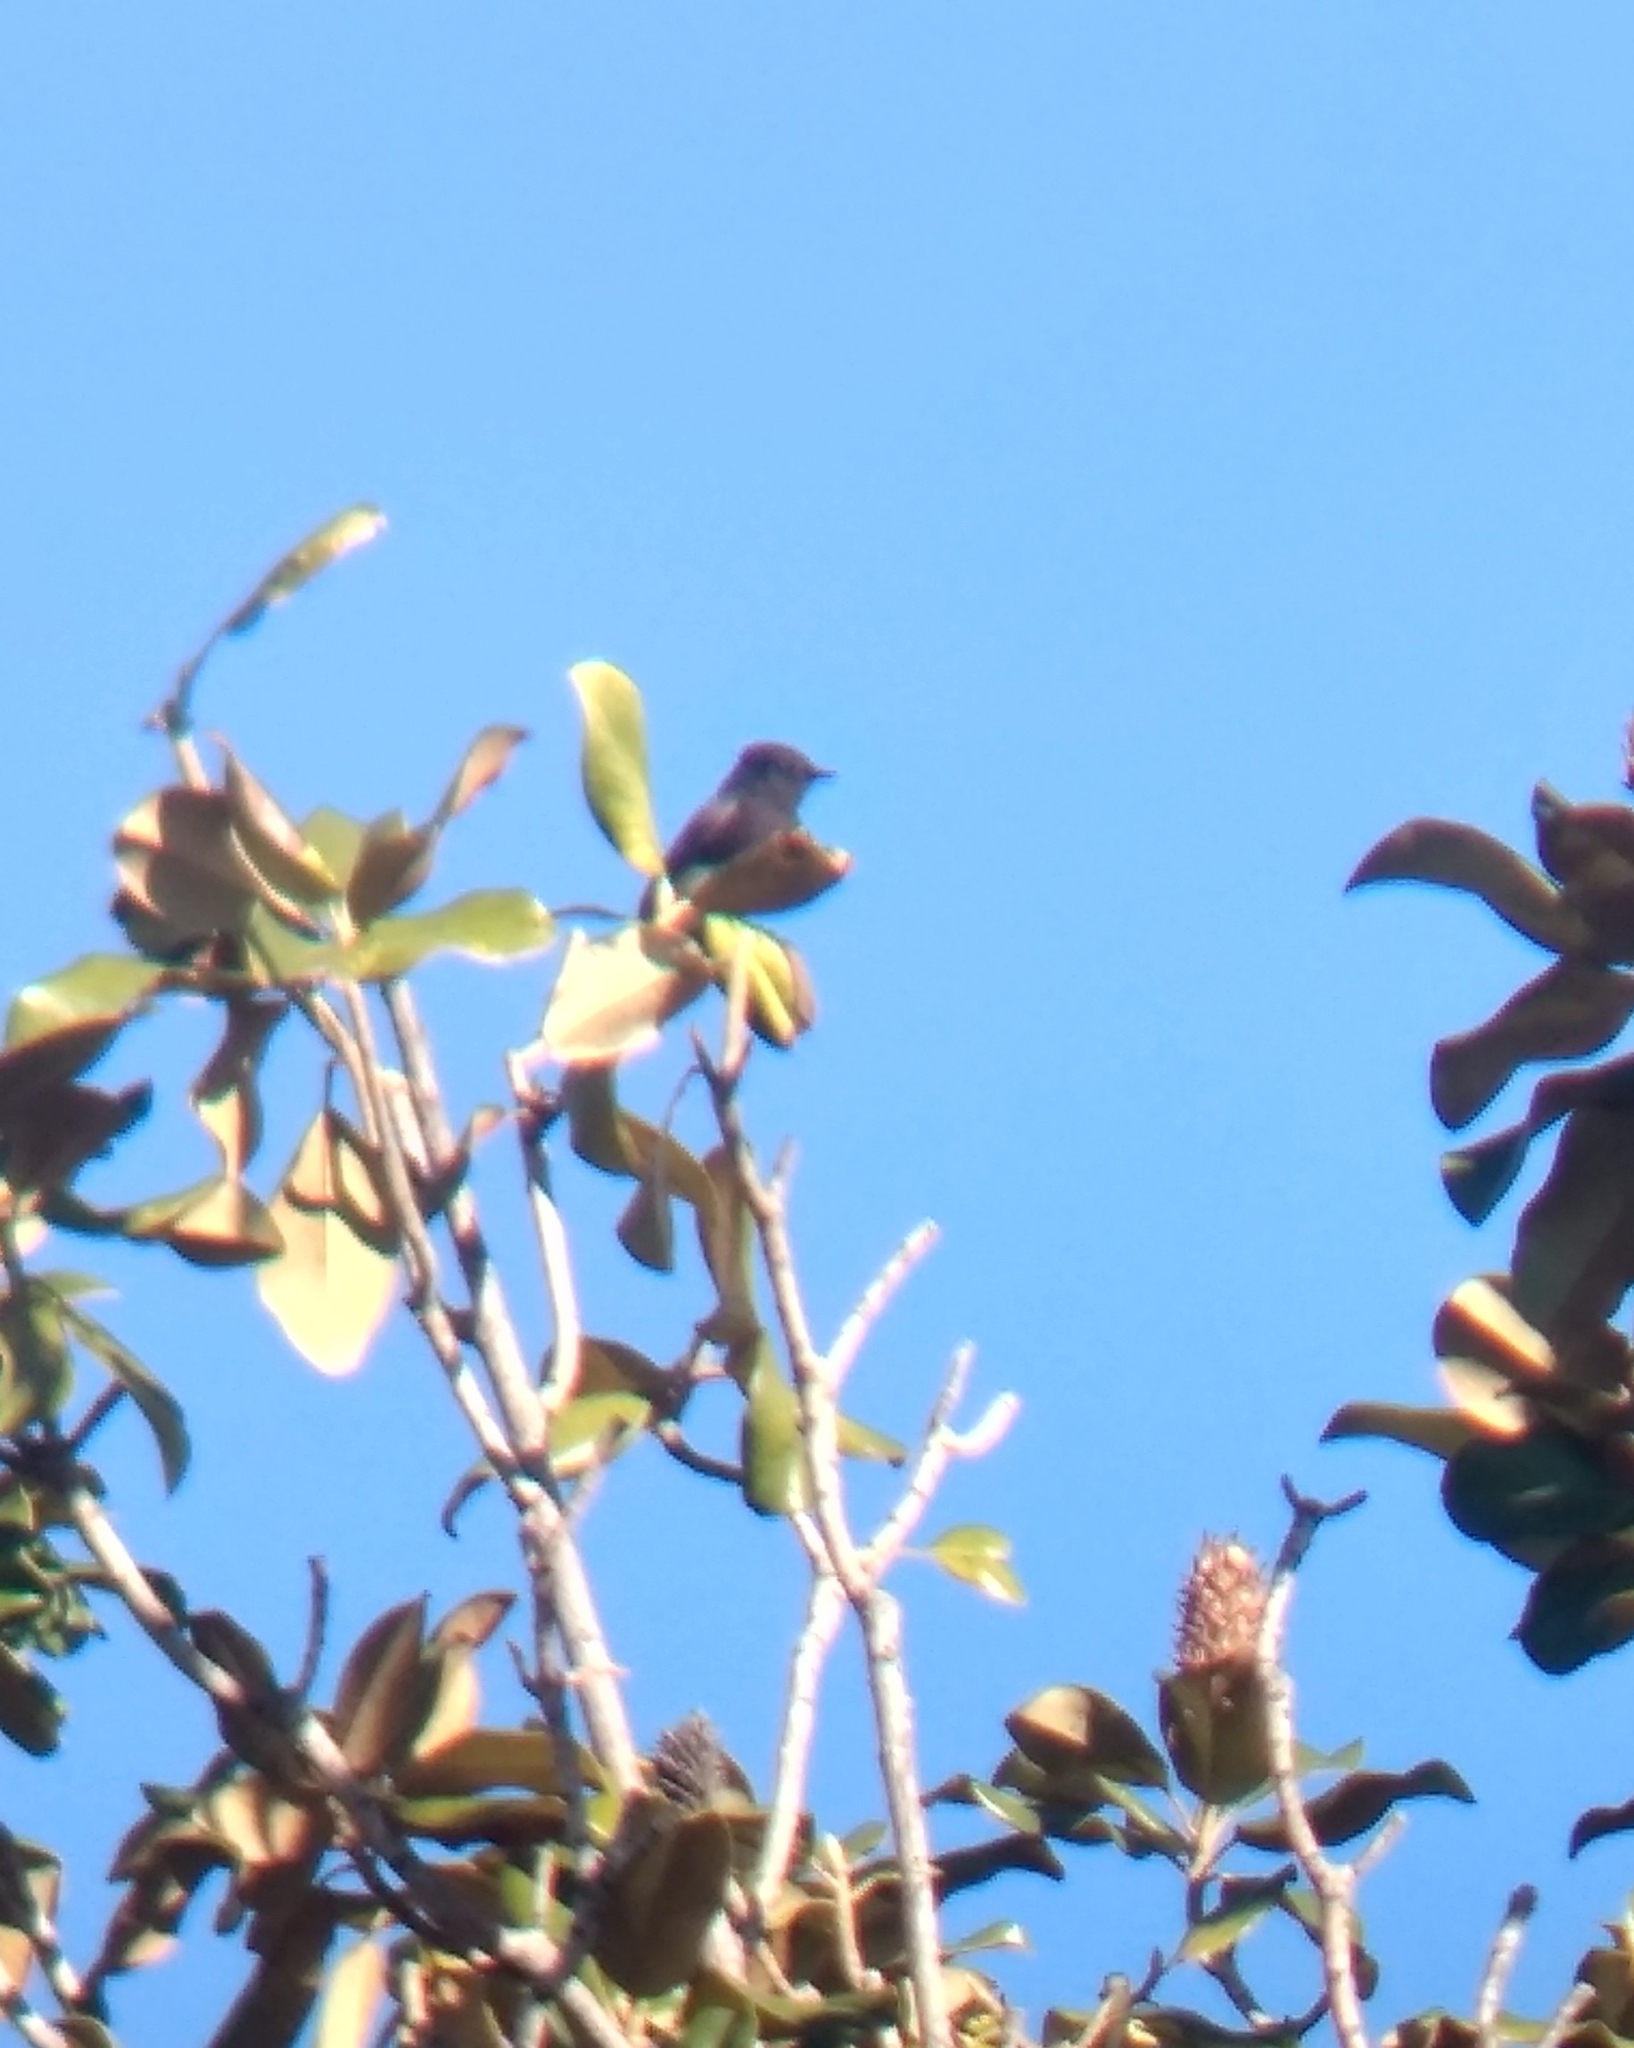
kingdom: Animalia
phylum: Chordata
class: Aves
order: Passeriformes
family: Tyrannidae
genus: Sayornis
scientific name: Sayornis nigricans
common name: Black phoebe
